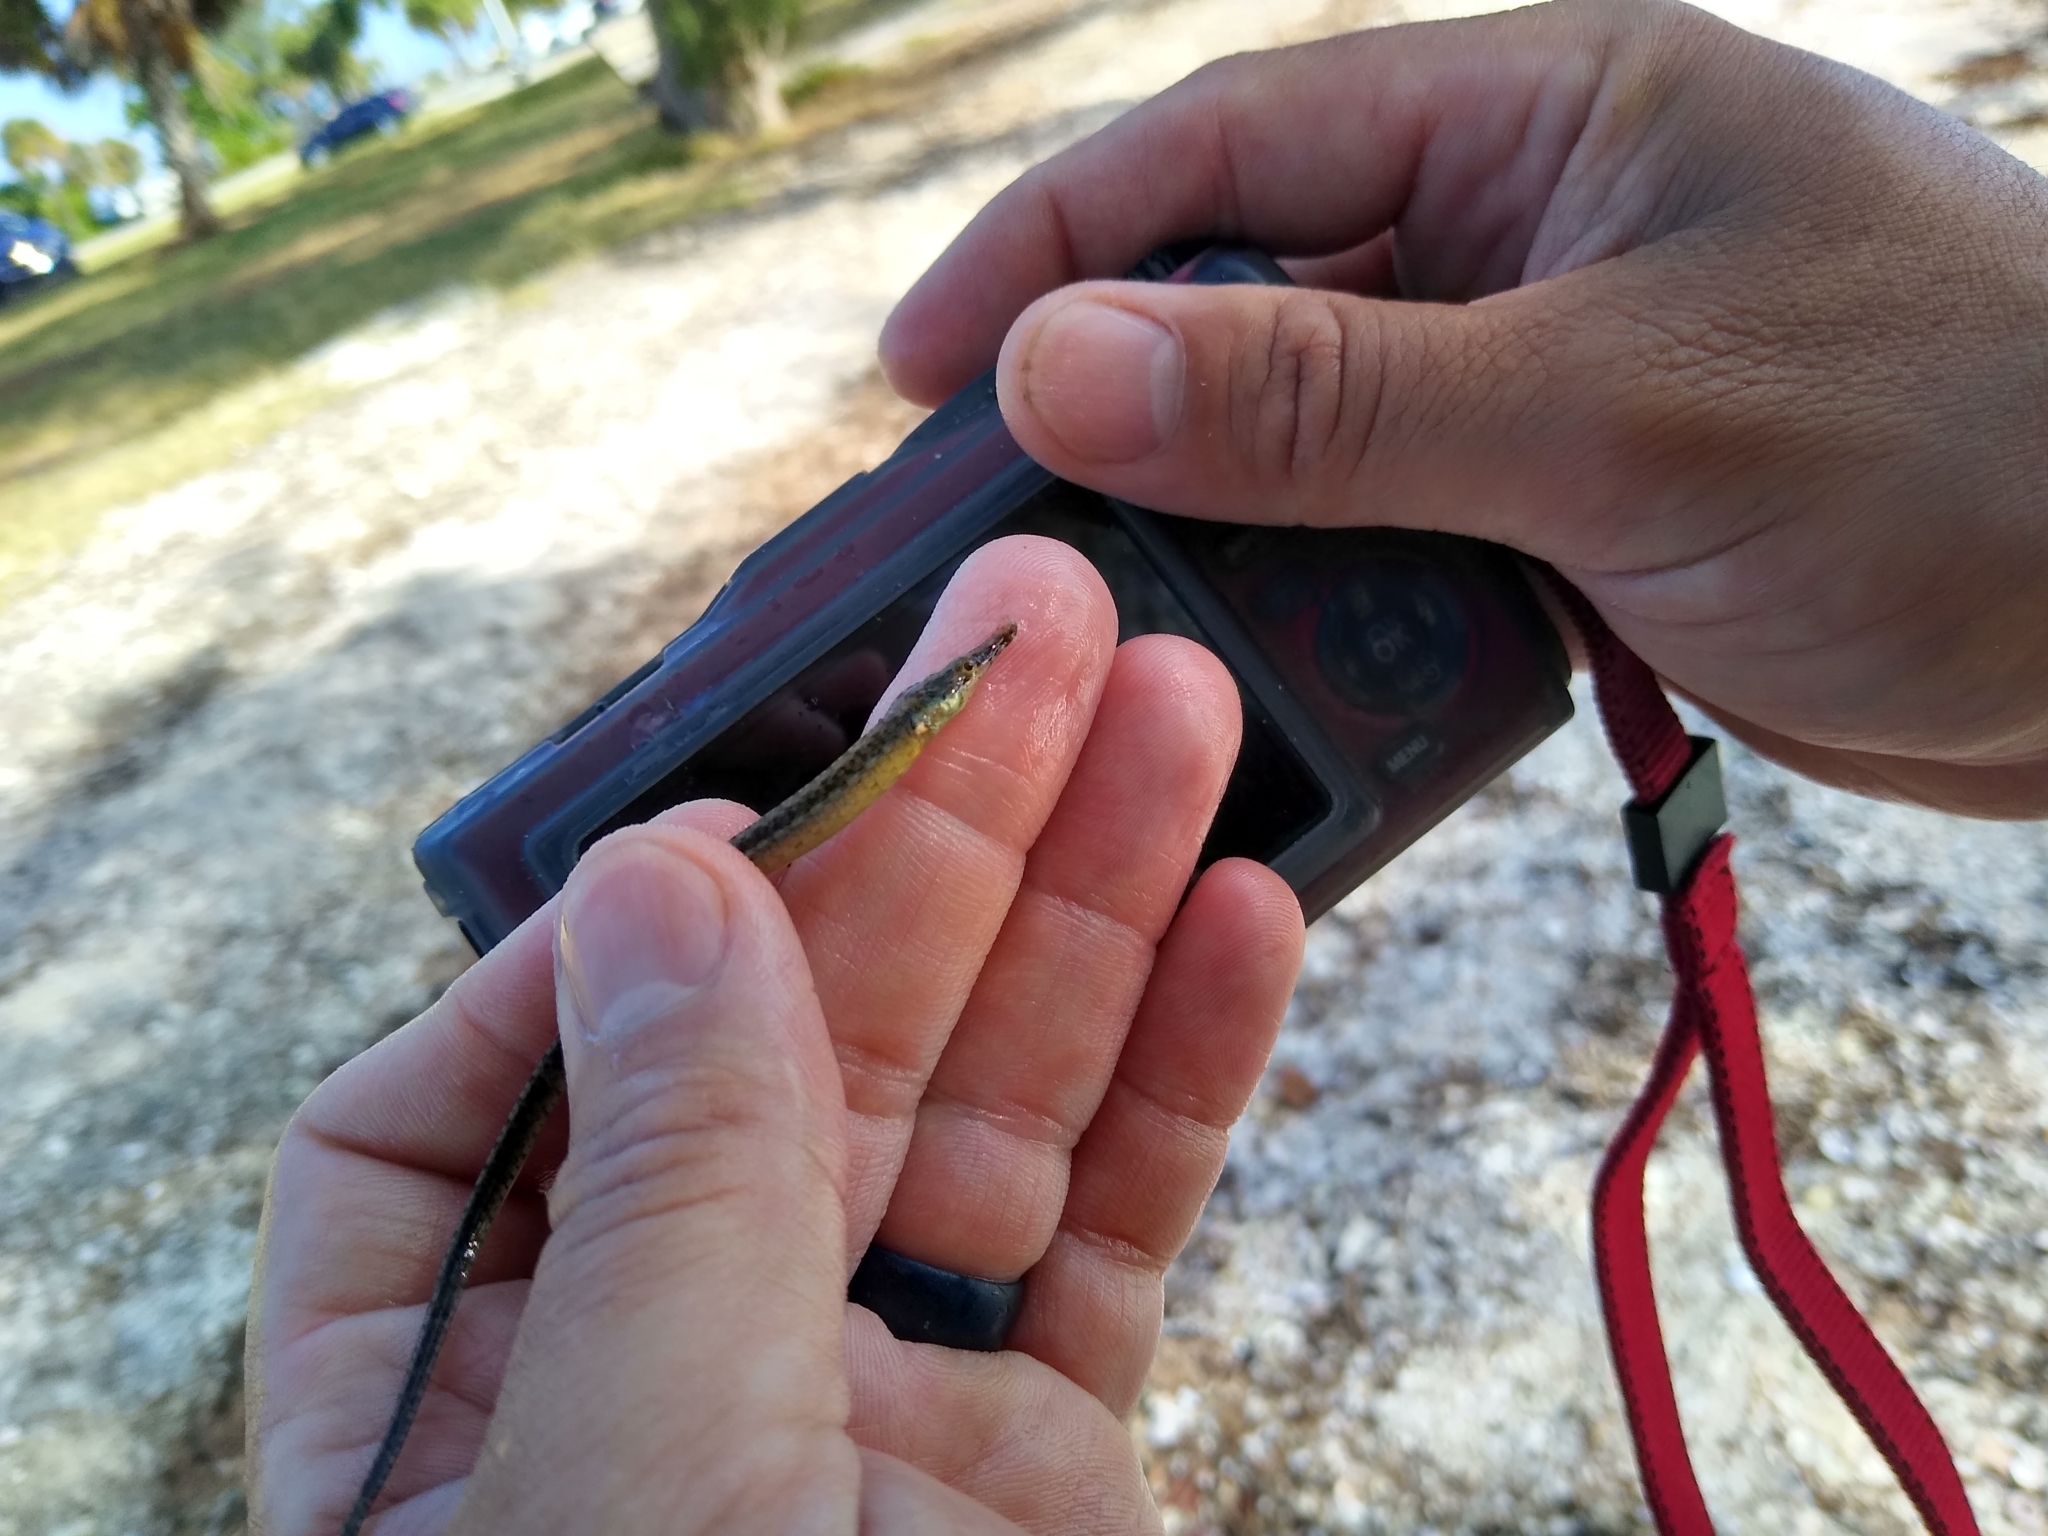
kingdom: Animalia
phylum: Chordata
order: Syngnathiformes
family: Syngnathidae
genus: Syngnathus
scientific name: Syngnathus scovelli
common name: American gulf pipefish
